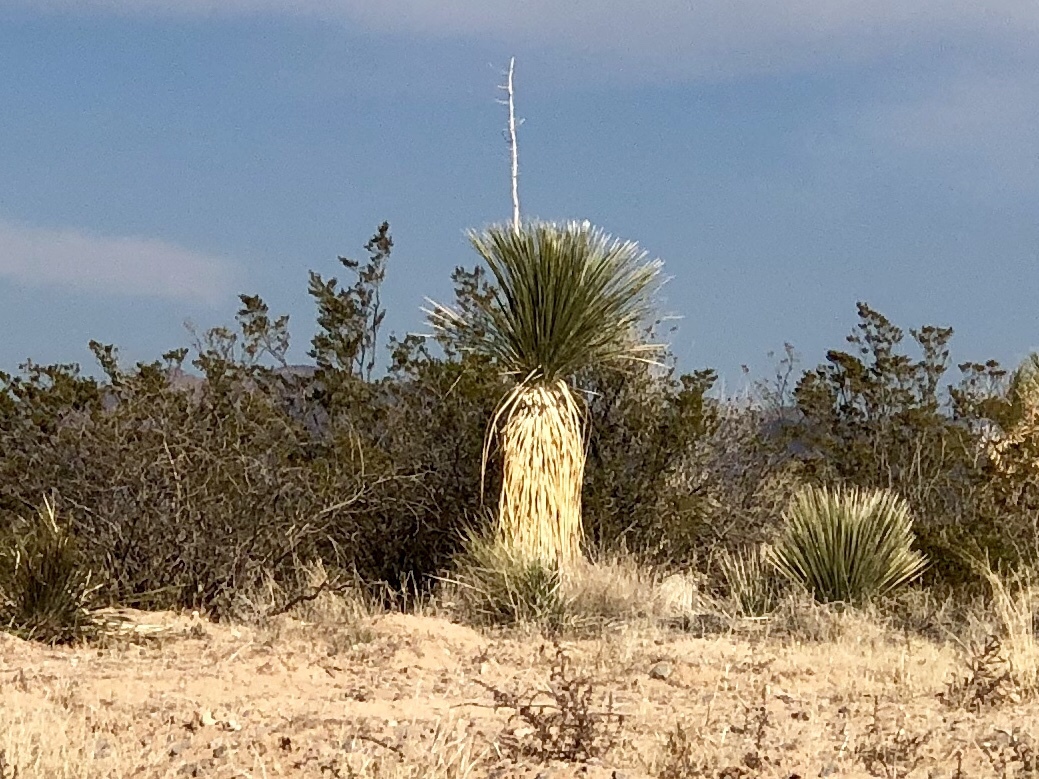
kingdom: Plantae
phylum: Tracheophyta
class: Liliopsida
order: Asparagales
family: Asparagaceae
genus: Yucca
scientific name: Yucca elata
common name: Palmella
